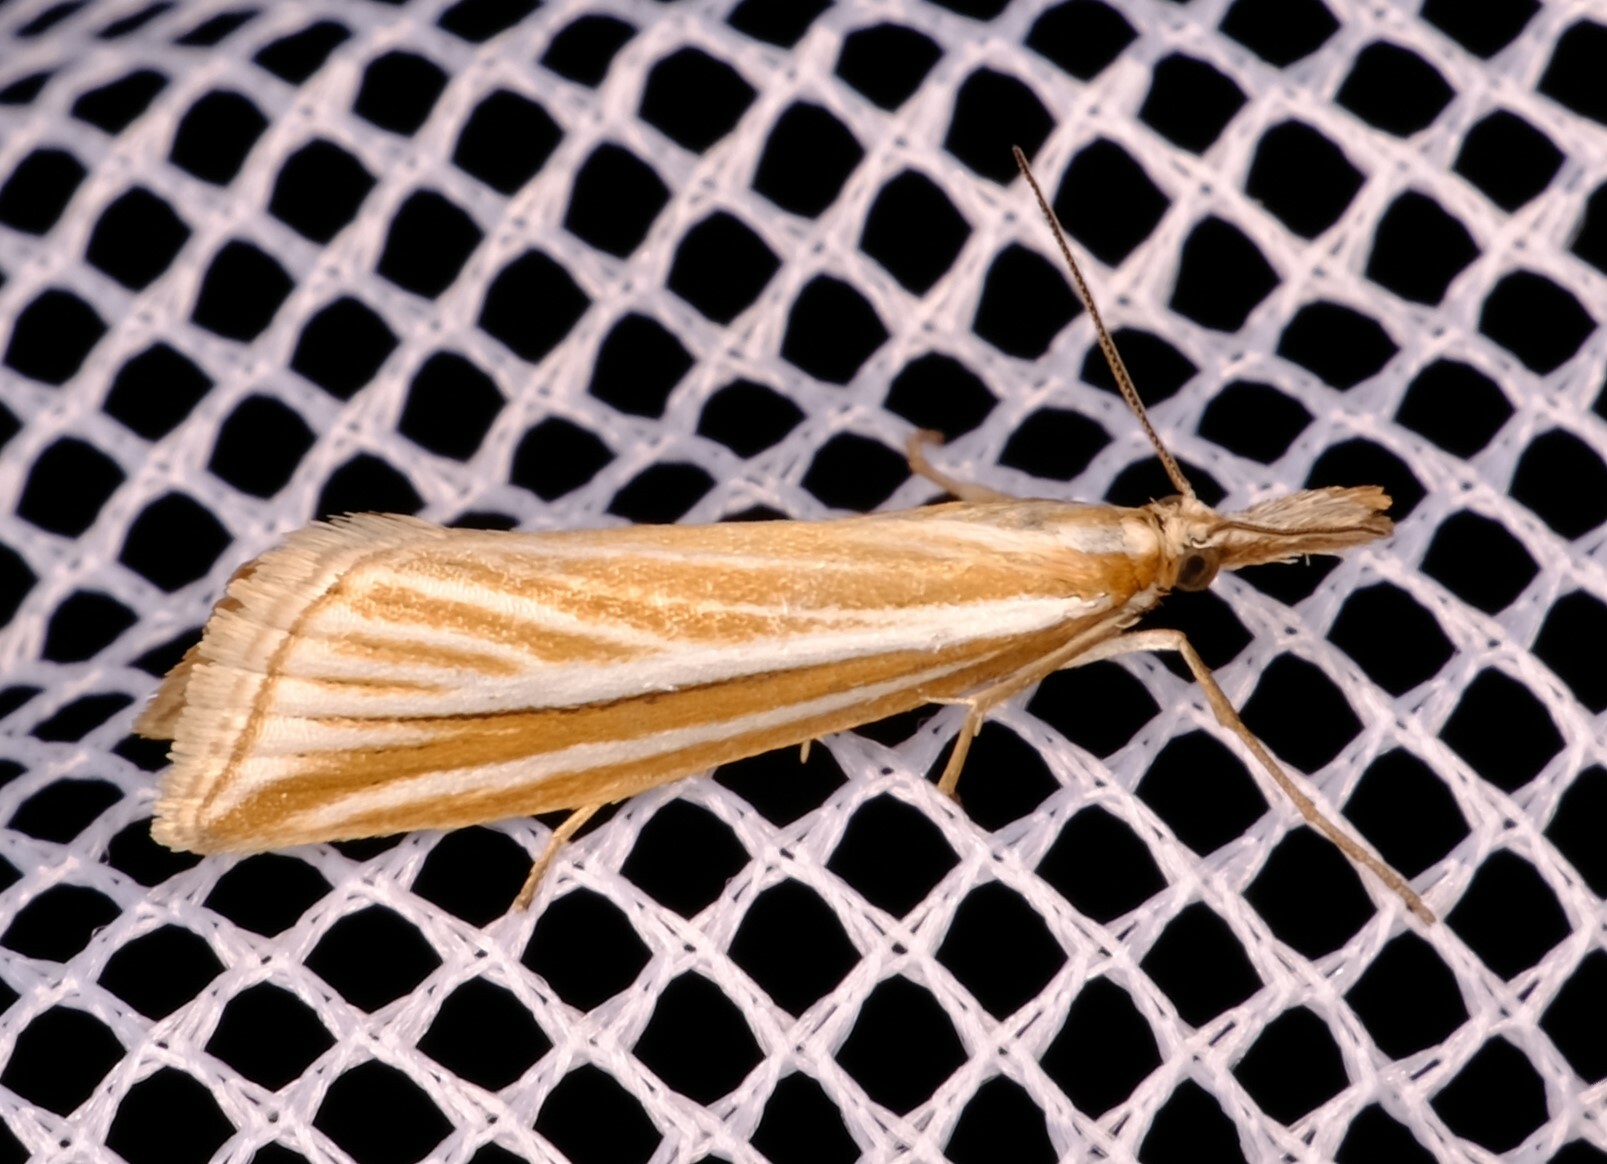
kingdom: Animalia
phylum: Arthropoda
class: Insecta
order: Lepidoptera
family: Crambidae
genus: Hednota
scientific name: Hednota grammellus
